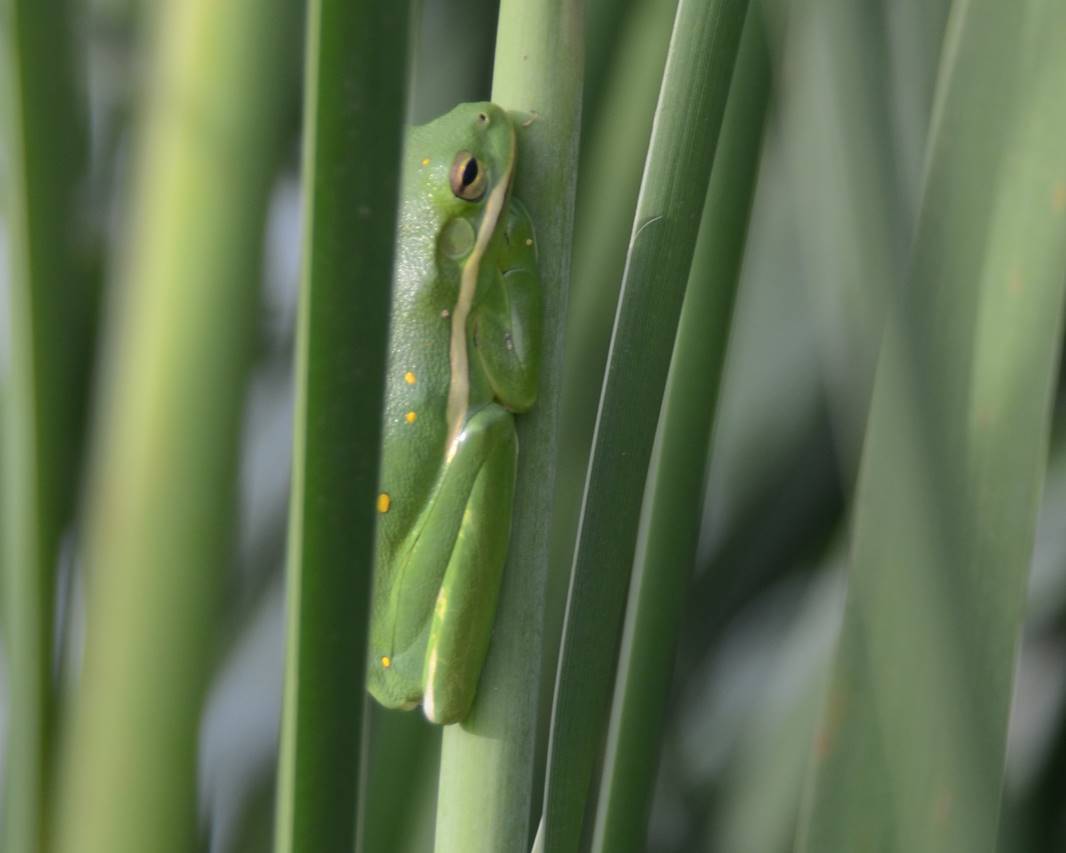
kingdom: Animalia
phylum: Chordata
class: Amphibia
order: Anura
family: Hylidae
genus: Dryophytes
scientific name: Dryophytes cinereus
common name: Green treefrog
